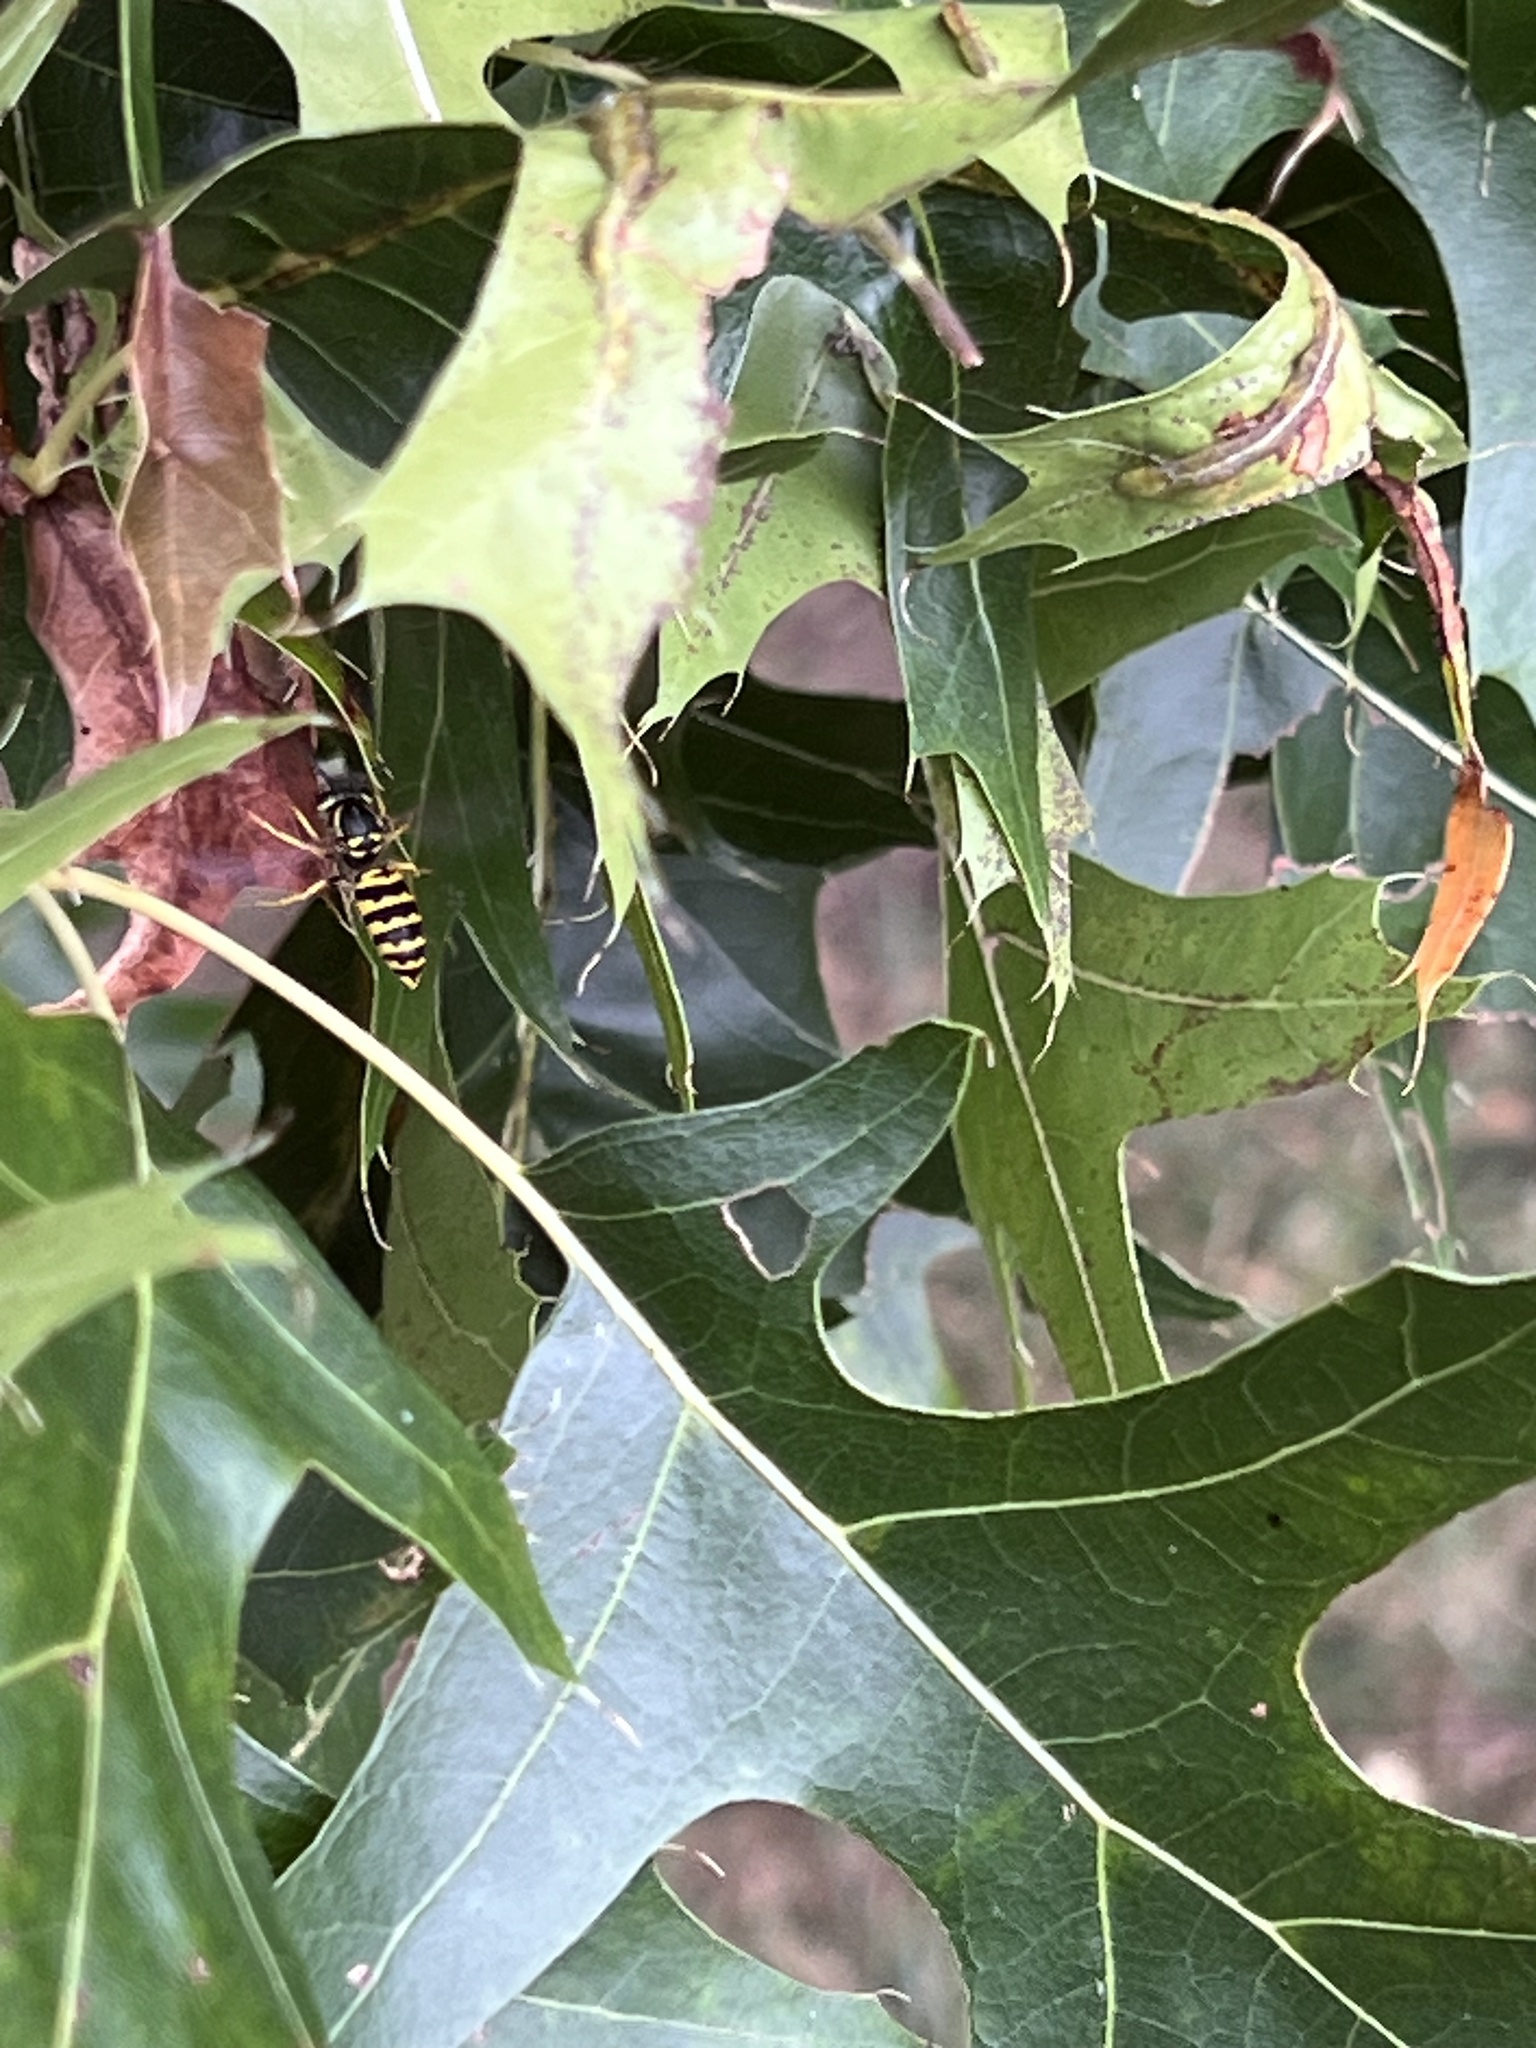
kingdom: Animalia
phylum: Arthropoda
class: Insecta
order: Hymenoptera
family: Vespidae
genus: Vespula
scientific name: Vespula maculifrons
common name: Eastern yellowjacket
